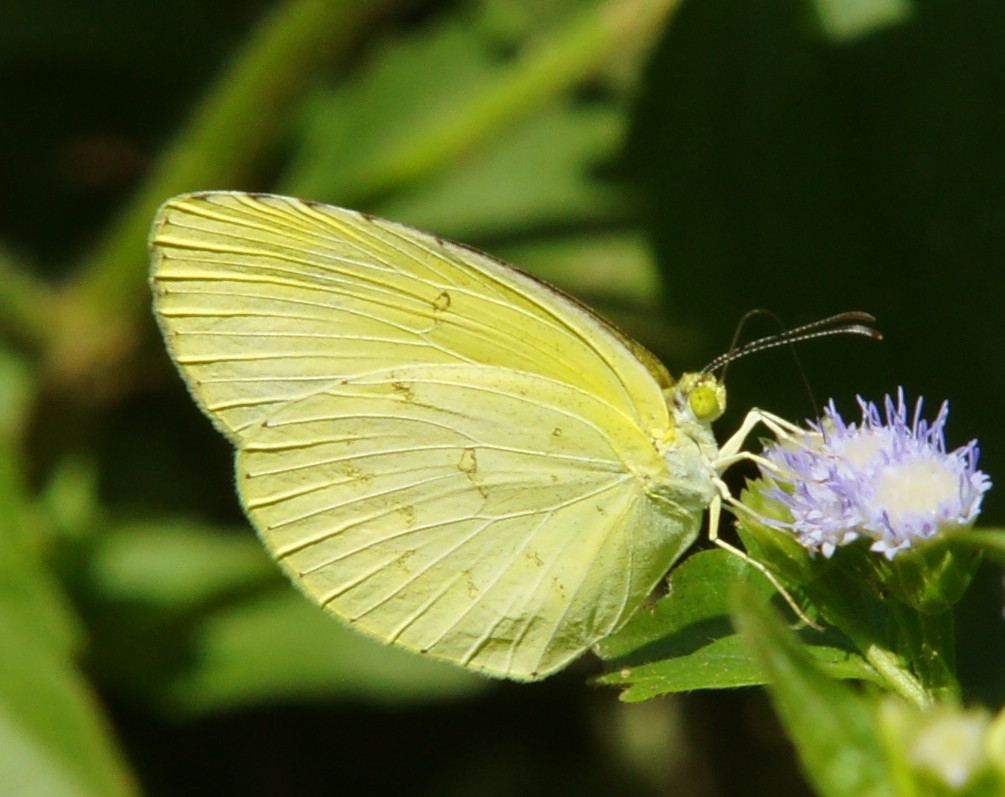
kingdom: Animalia
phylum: Arthropoda
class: Insecta
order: Lepidoptera
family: Pieridae
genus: Eurema
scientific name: Eurema hecabe
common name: Pale grass yellow
